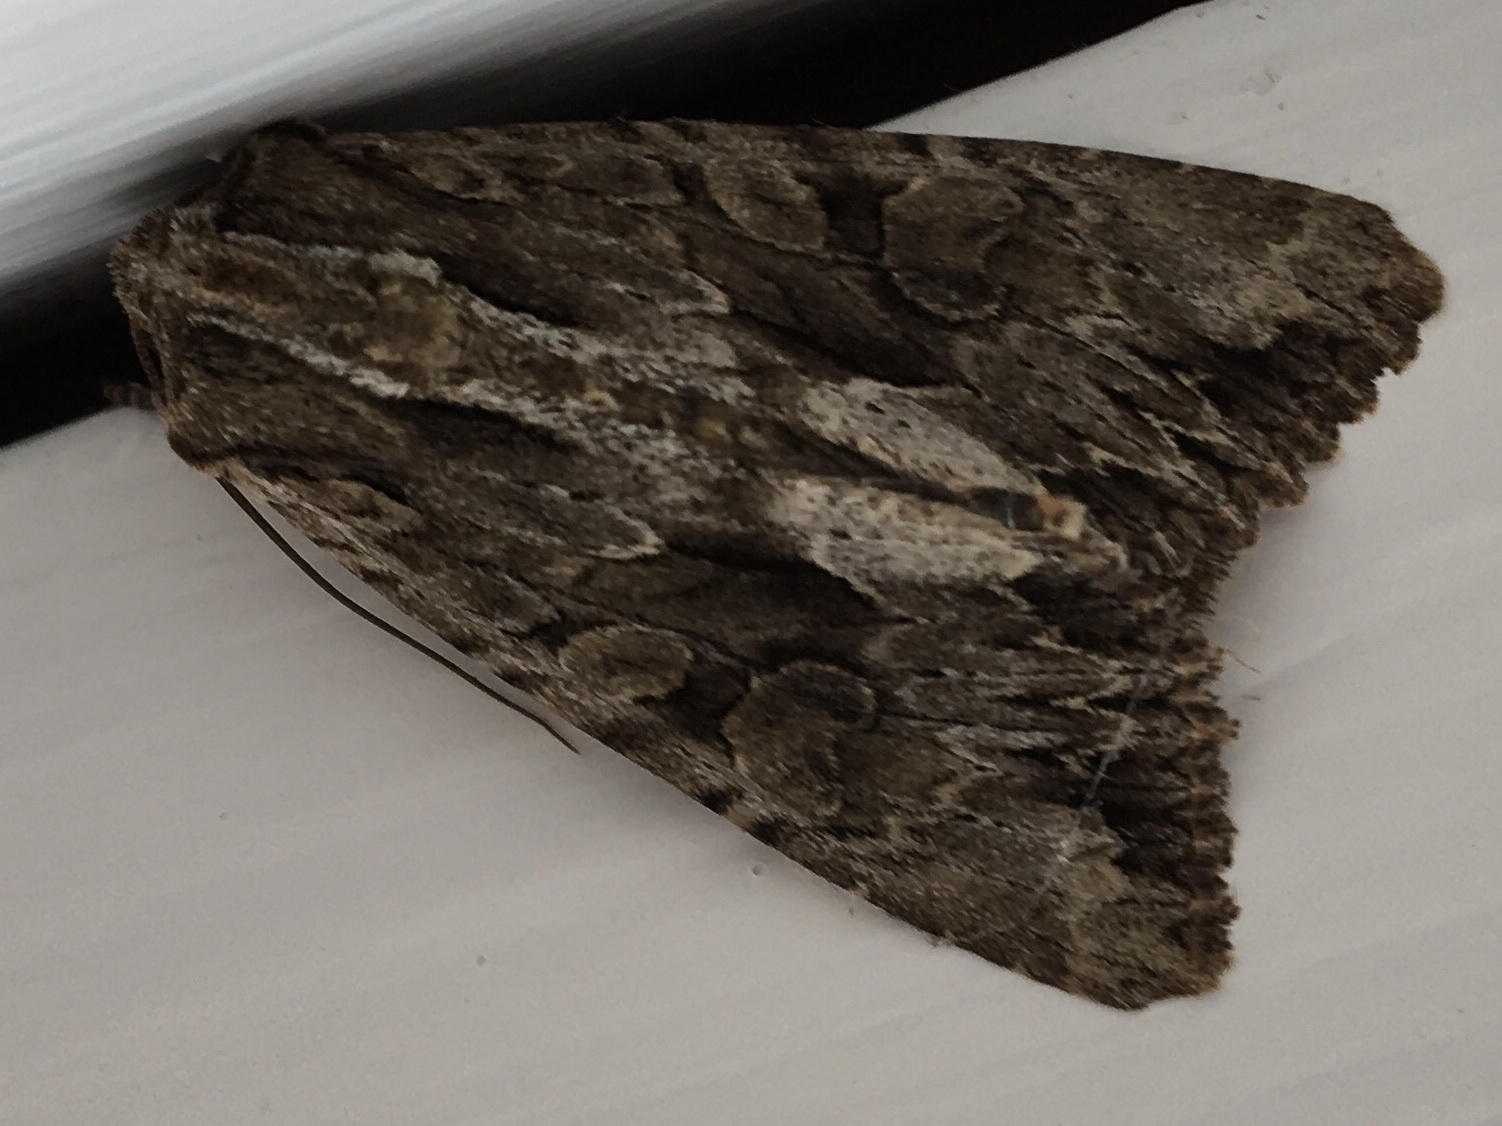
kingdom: Animalia
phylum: Arthropoda
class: Insecta
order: Lepidoptera
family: Noctuidae
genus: Apamea
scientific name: Apamea monoglypha
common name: Dark arches
